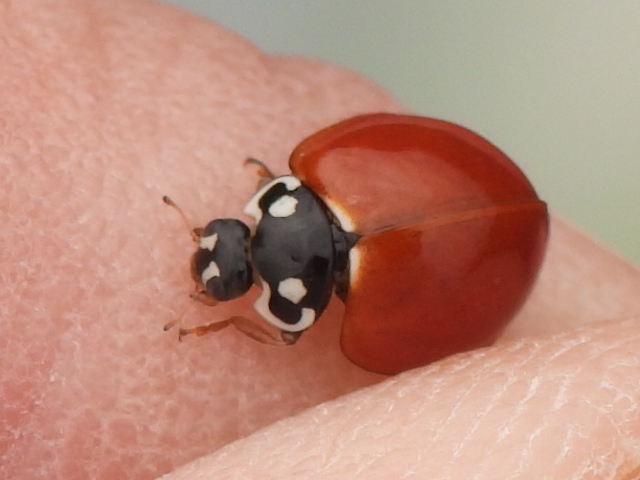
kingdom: Animalia
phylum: Arthropoda
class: Insecta
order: Coleoptera
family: Coccinellidae
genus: Cycloneda
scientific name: Cycloneda sanguinea
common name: Ladybird beetle
